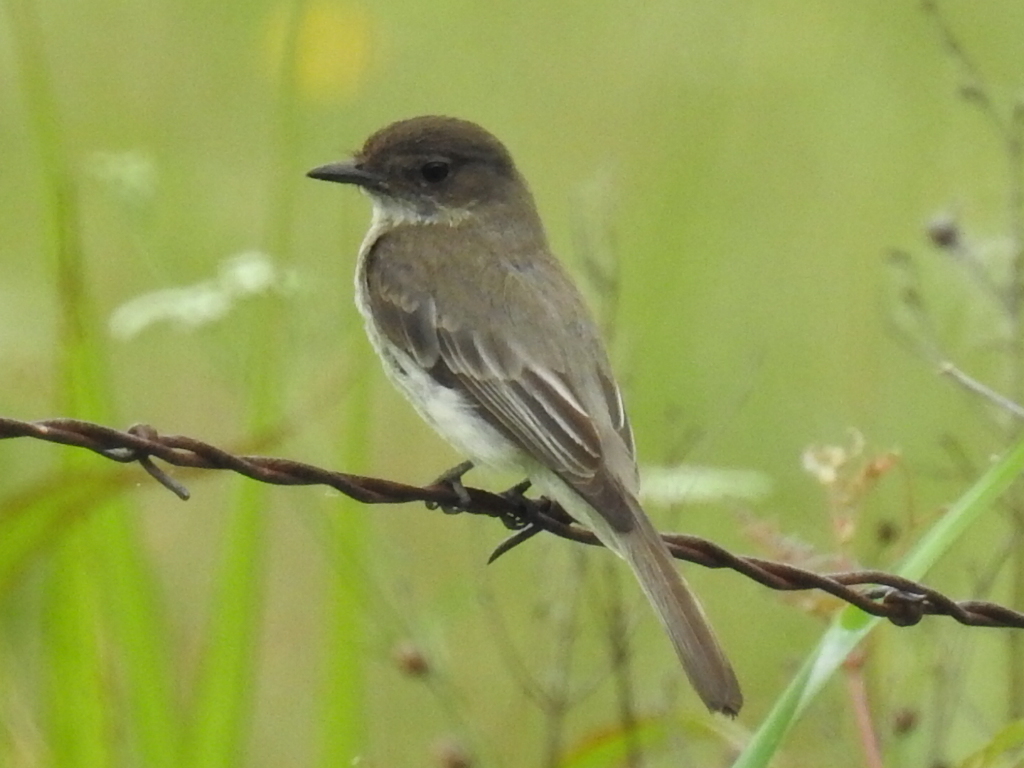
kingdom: Animalia
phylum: Chordata
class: Aves
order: Passeriformes
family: Tyrannidae
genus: Sayornis
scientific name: Sayornis phoebe
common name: Eastern phoebe
